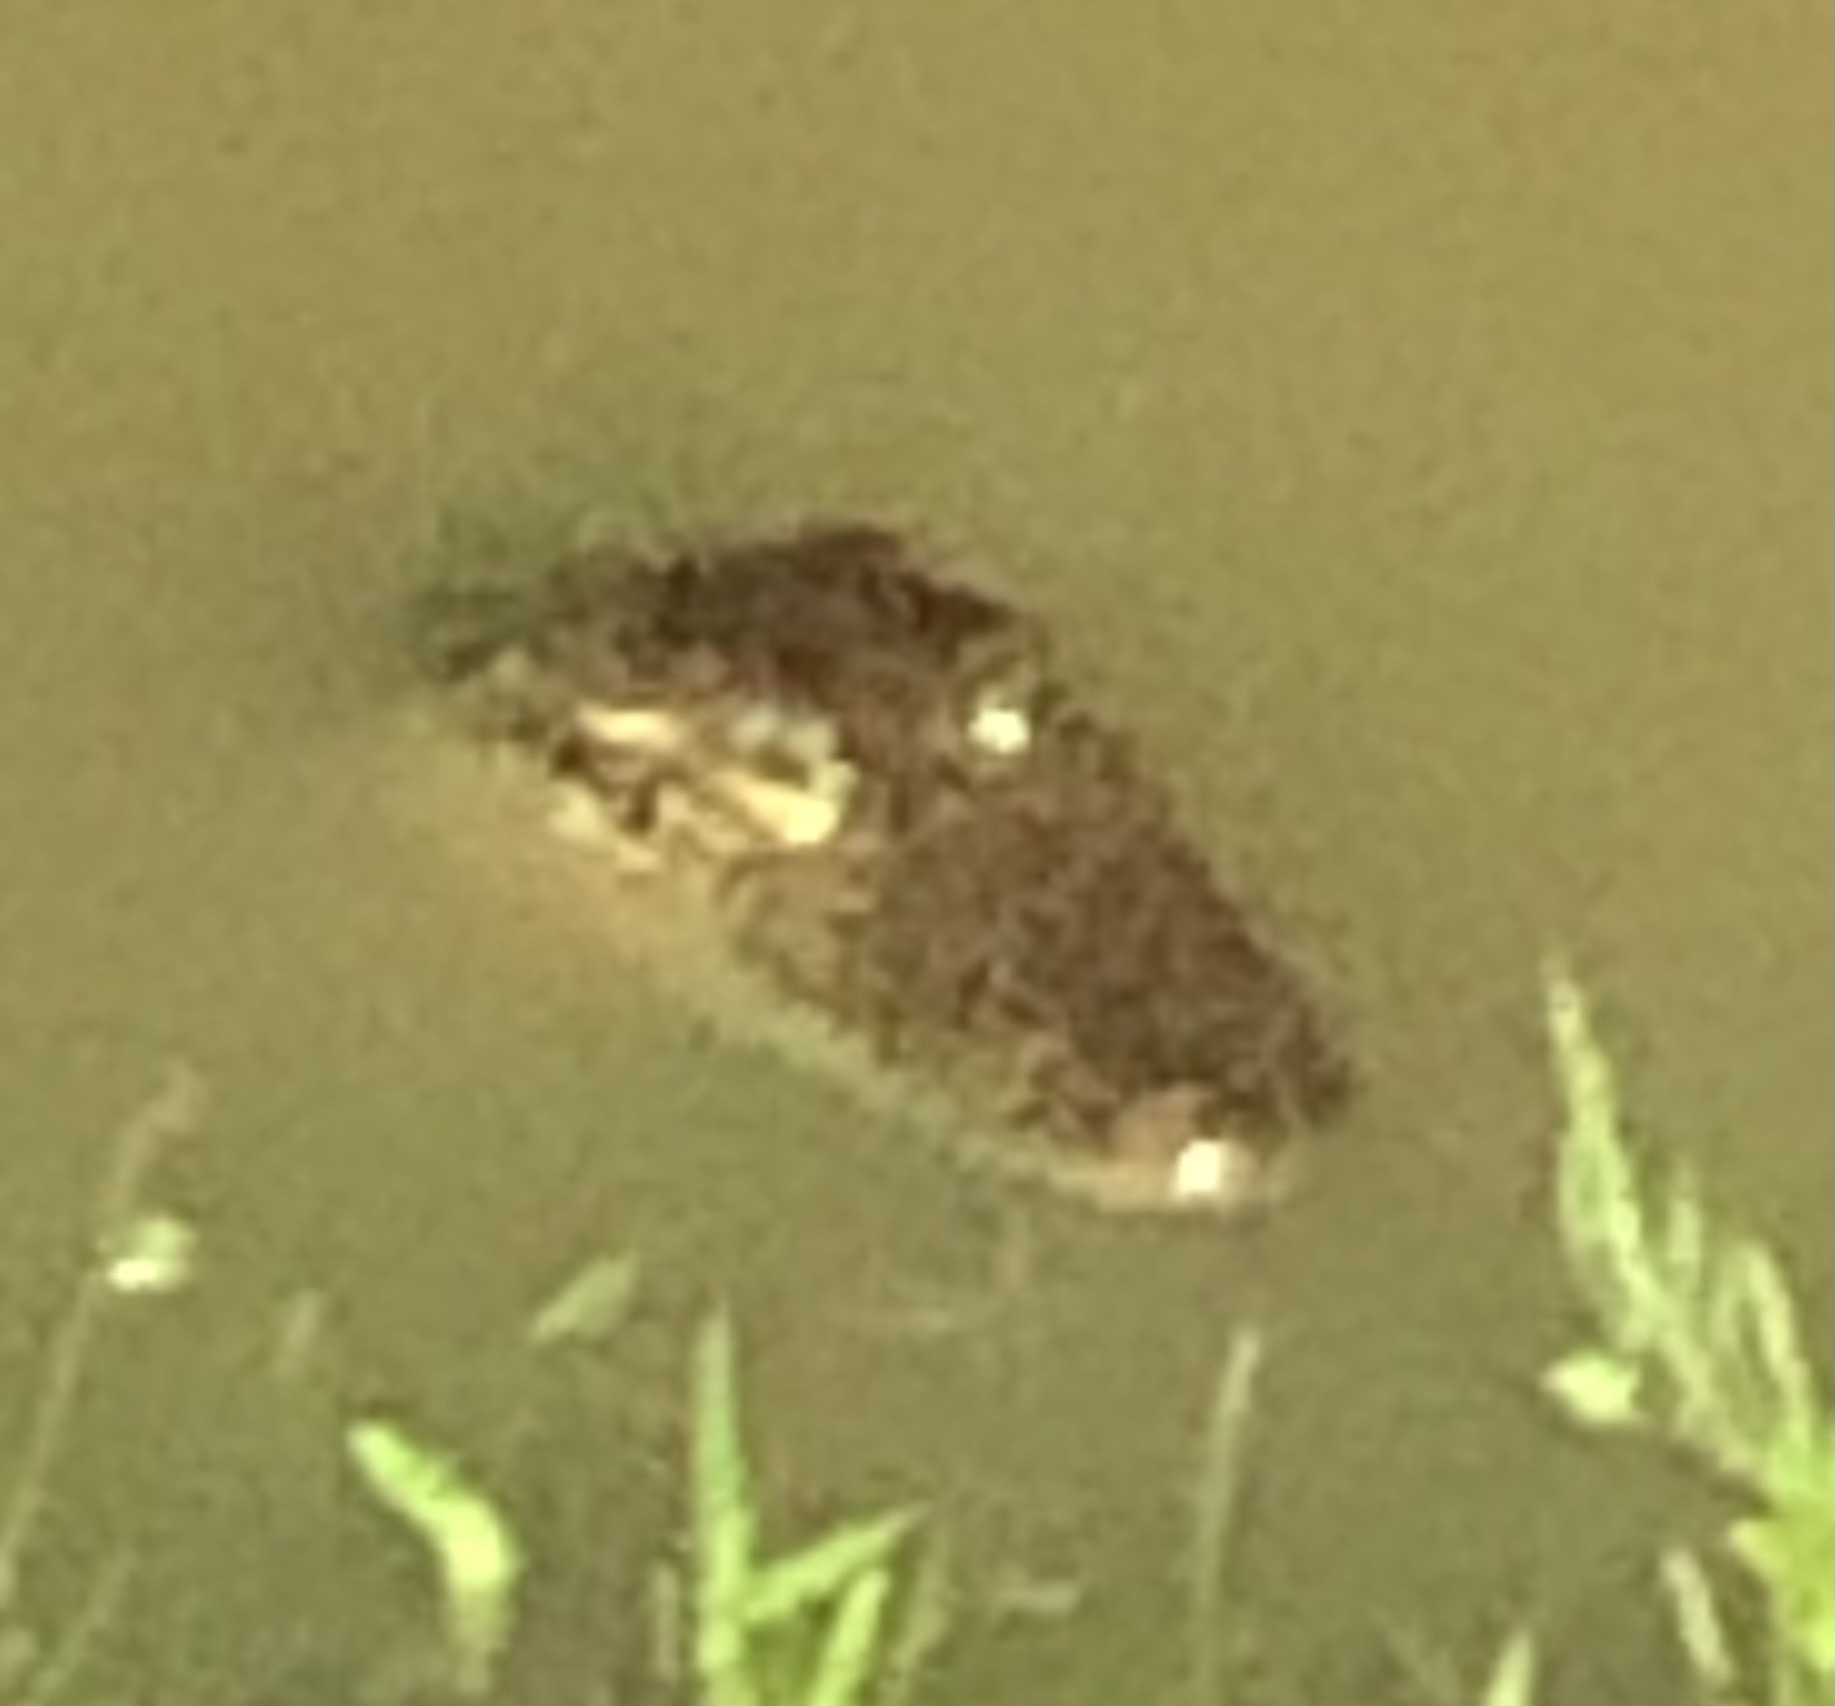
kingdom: Animalia
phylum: Chordata
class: Crocodylia
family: Alligatoridae
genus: Alligator
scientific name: Alligator mississippiensis
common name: American alligator
